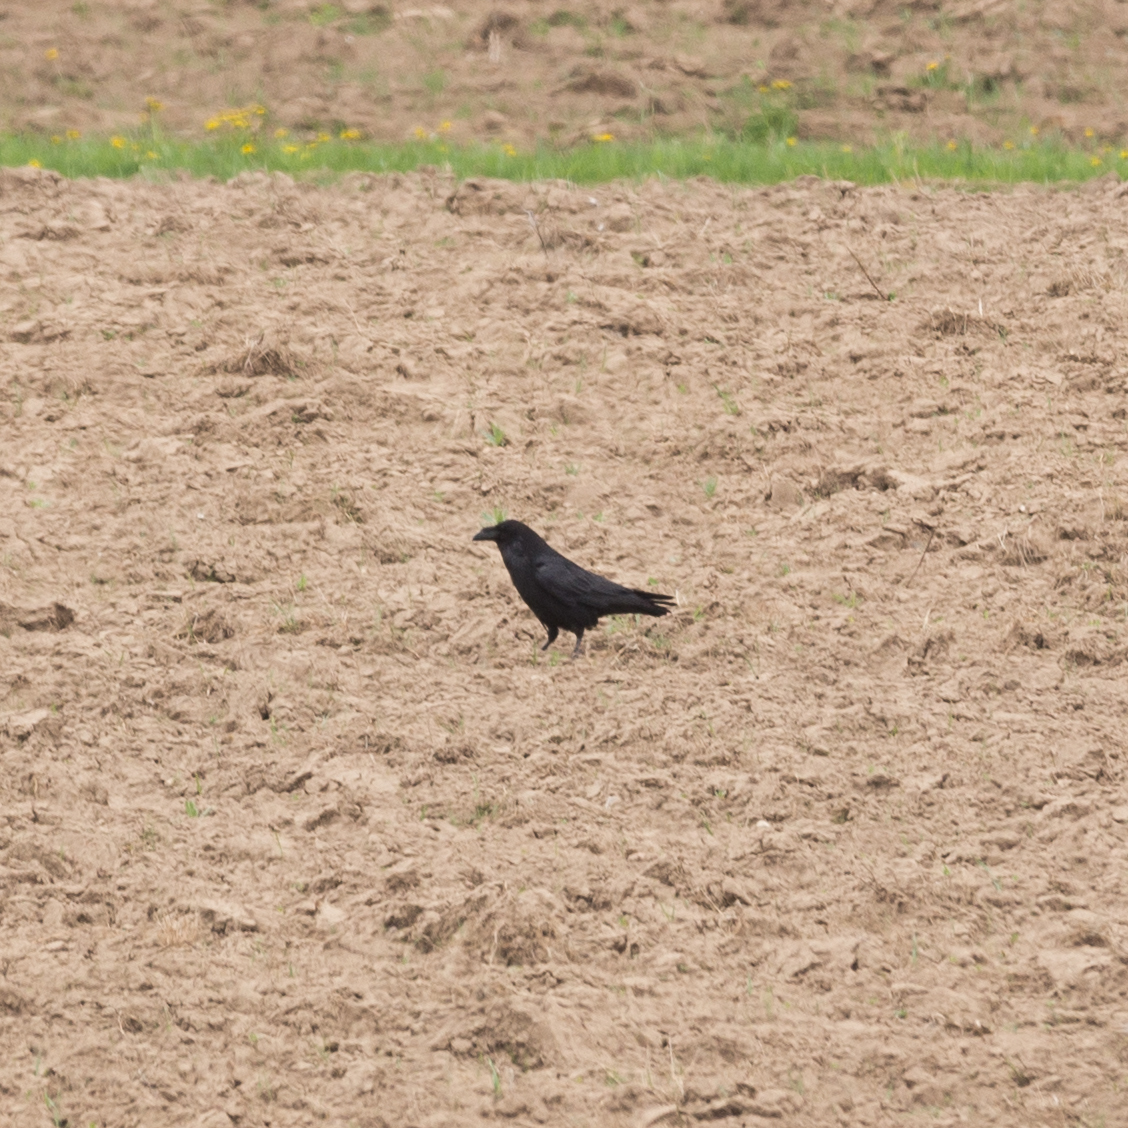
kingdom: Animalia
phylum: Chordata
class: Aves
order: Passeriformes
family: Corvidae
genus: Corvus
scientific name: Corvus corax
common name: Common raven
